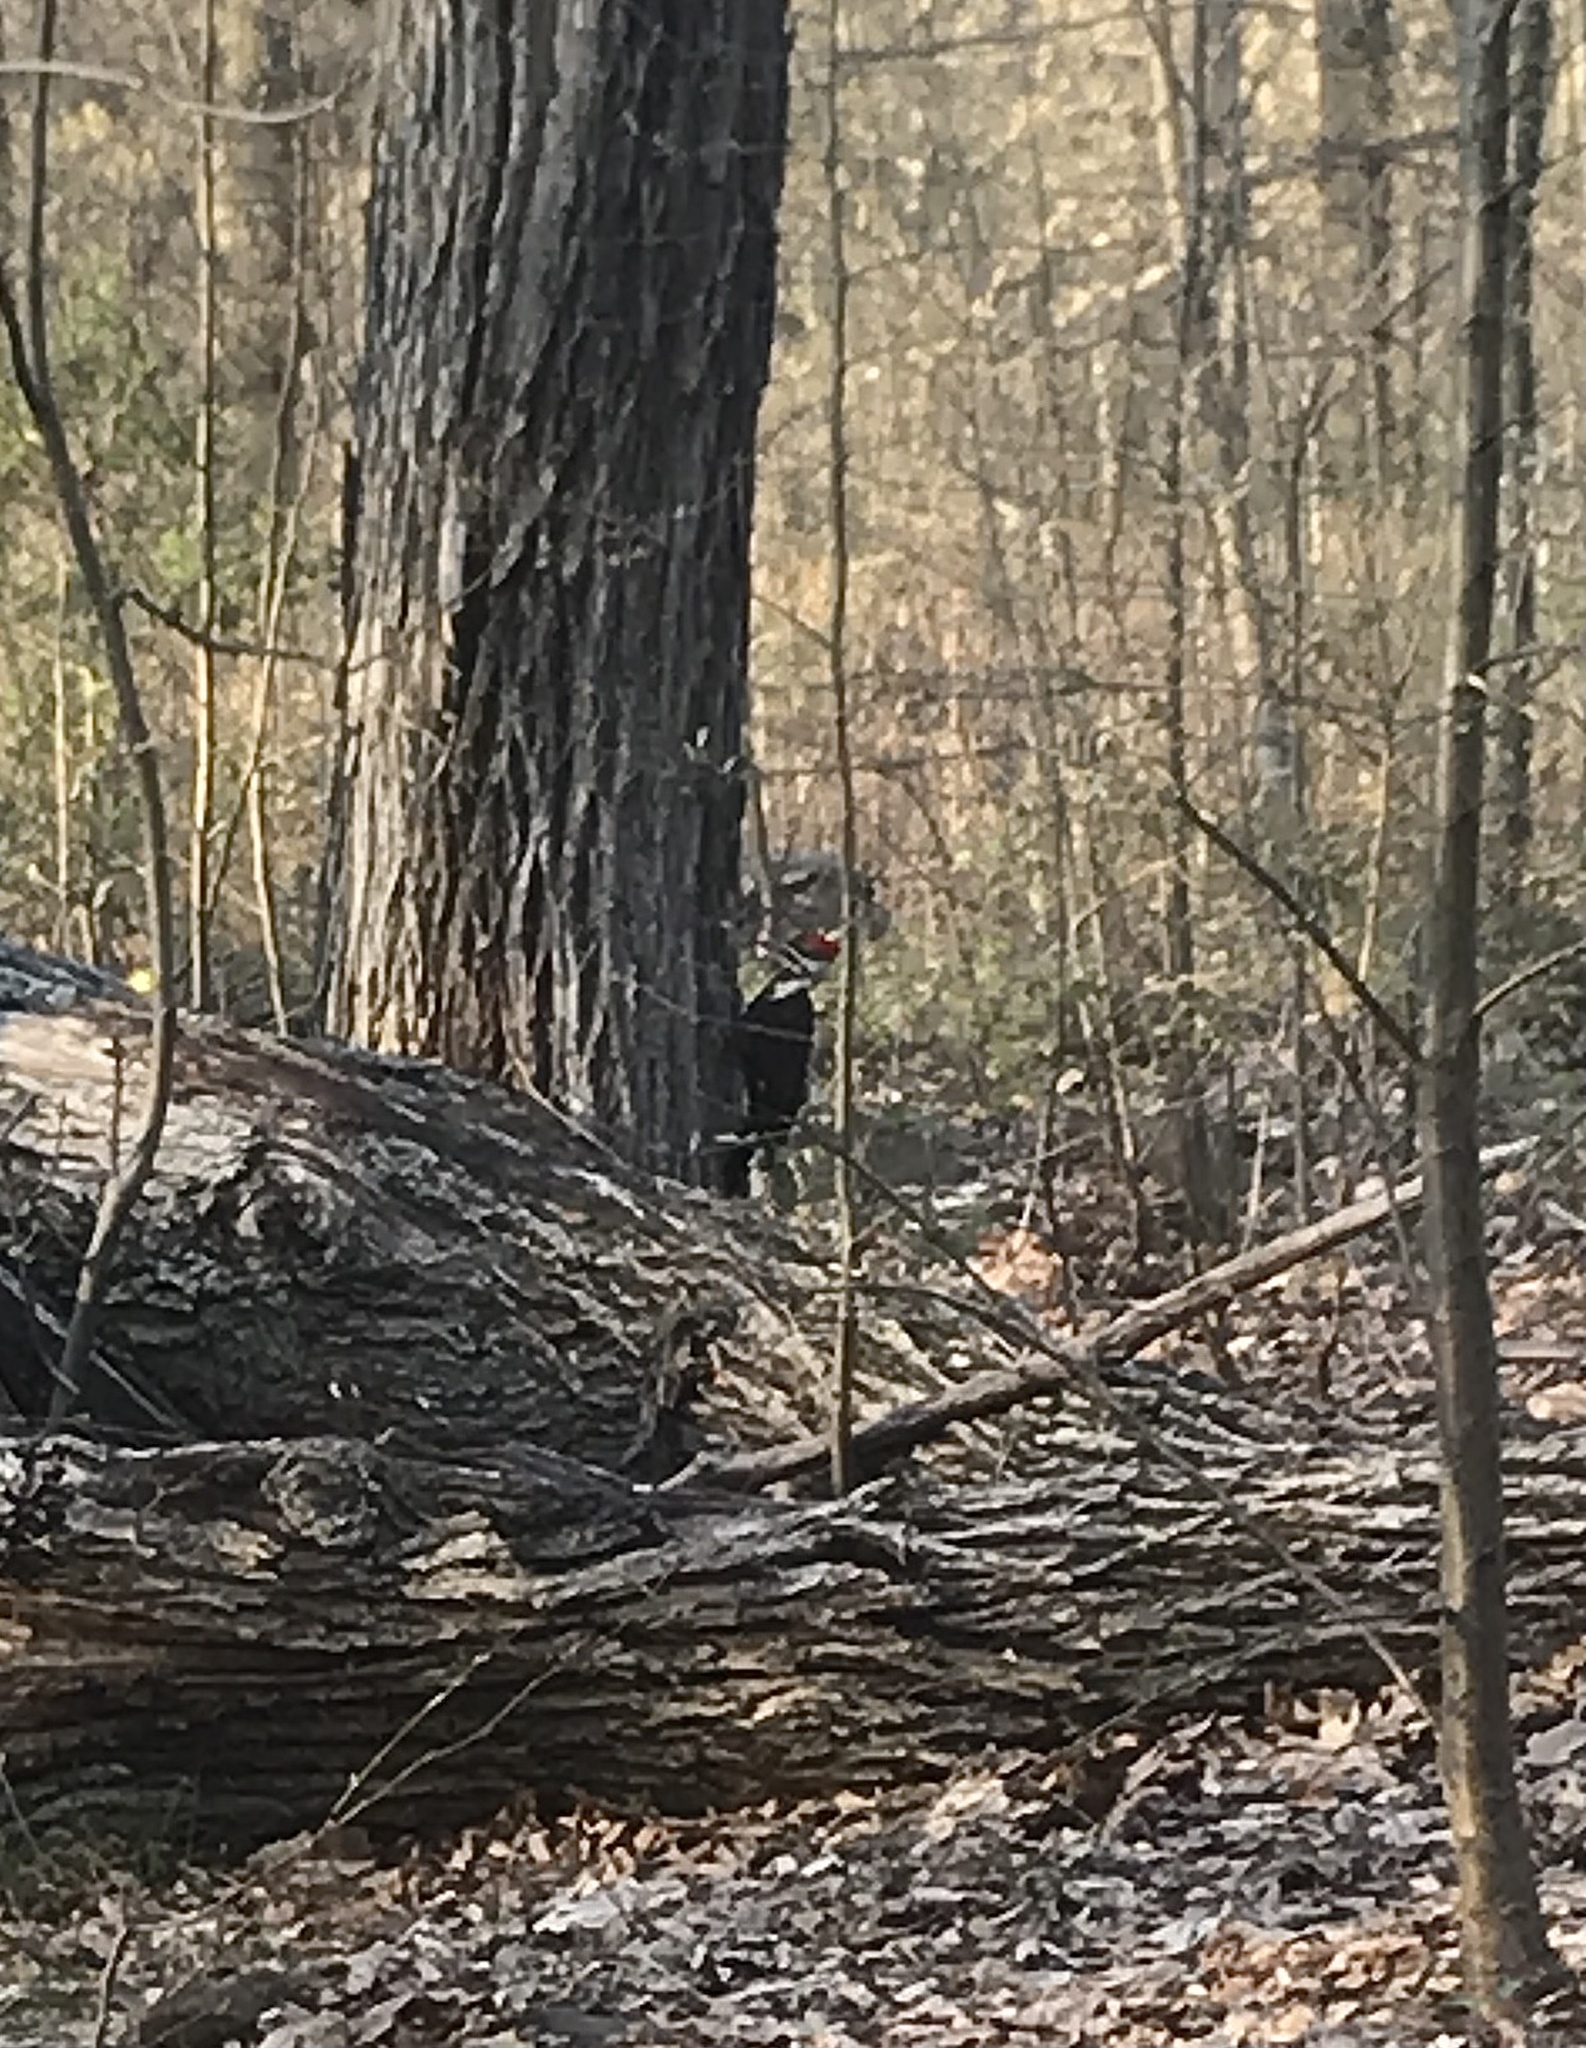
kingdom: Animalia
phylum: Chordata
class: Aves
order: Piciformes
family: Picidae
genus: Dryocopus
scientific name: Dryocopus pileatus
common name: Pileated woodpecker
